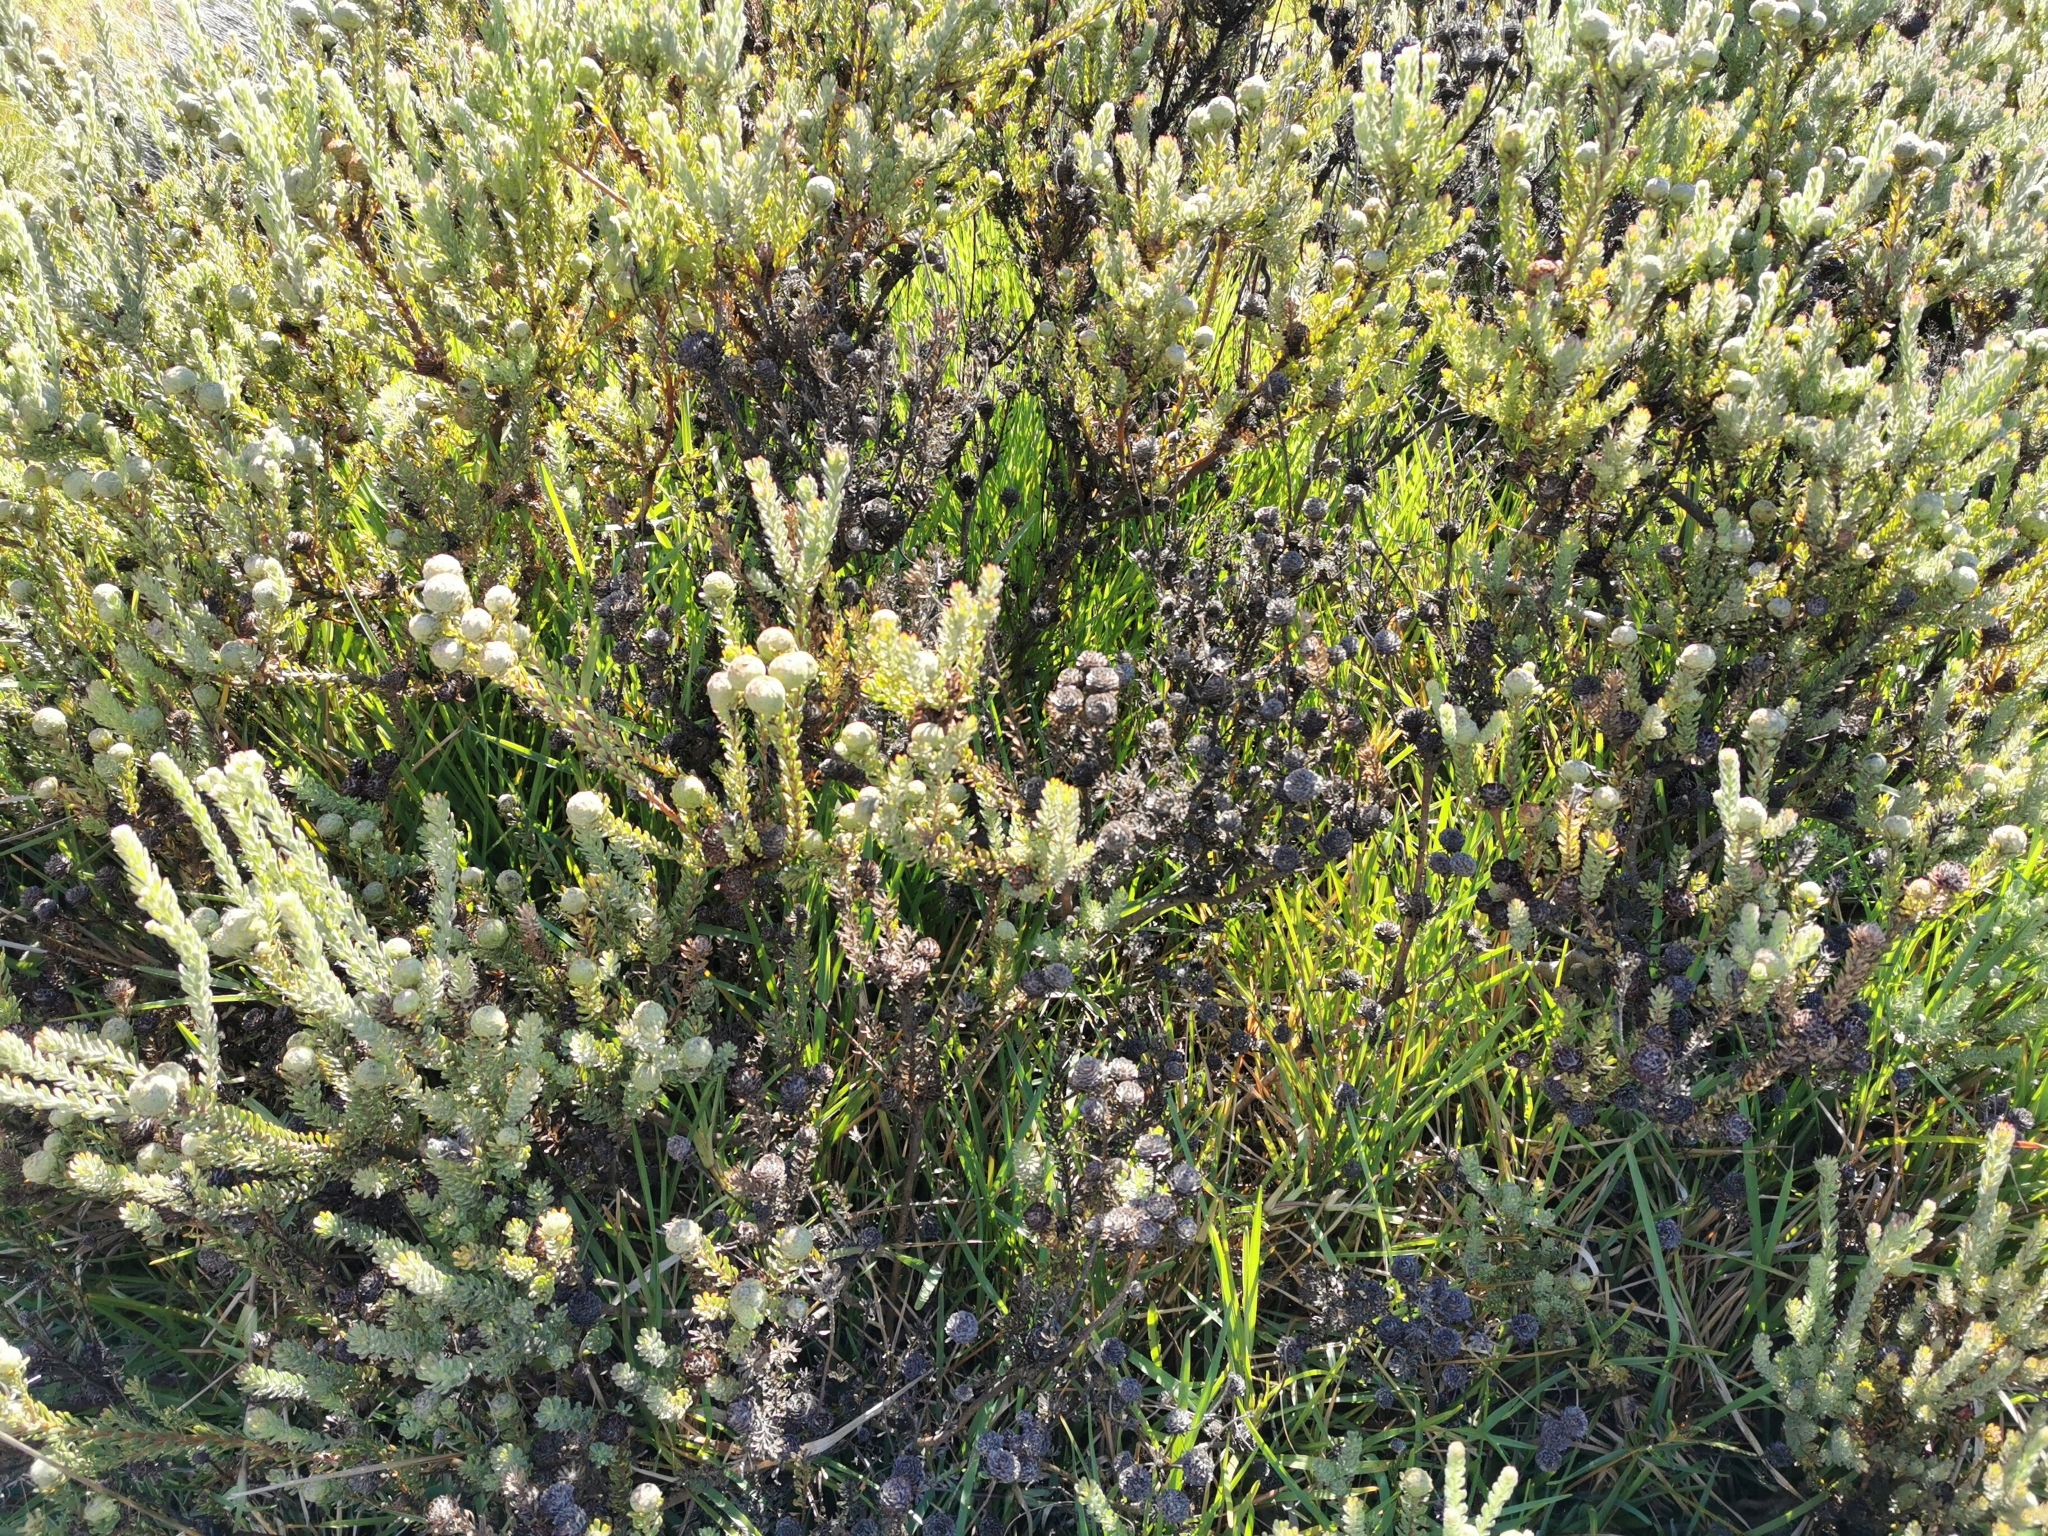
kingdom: Plantae
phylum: Tracheophyta
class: Magnoliopsida
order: Proteales
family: Proteaceae
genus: Leucadendron
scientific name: Leucadendron levisanus
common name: Cape flats conebush
